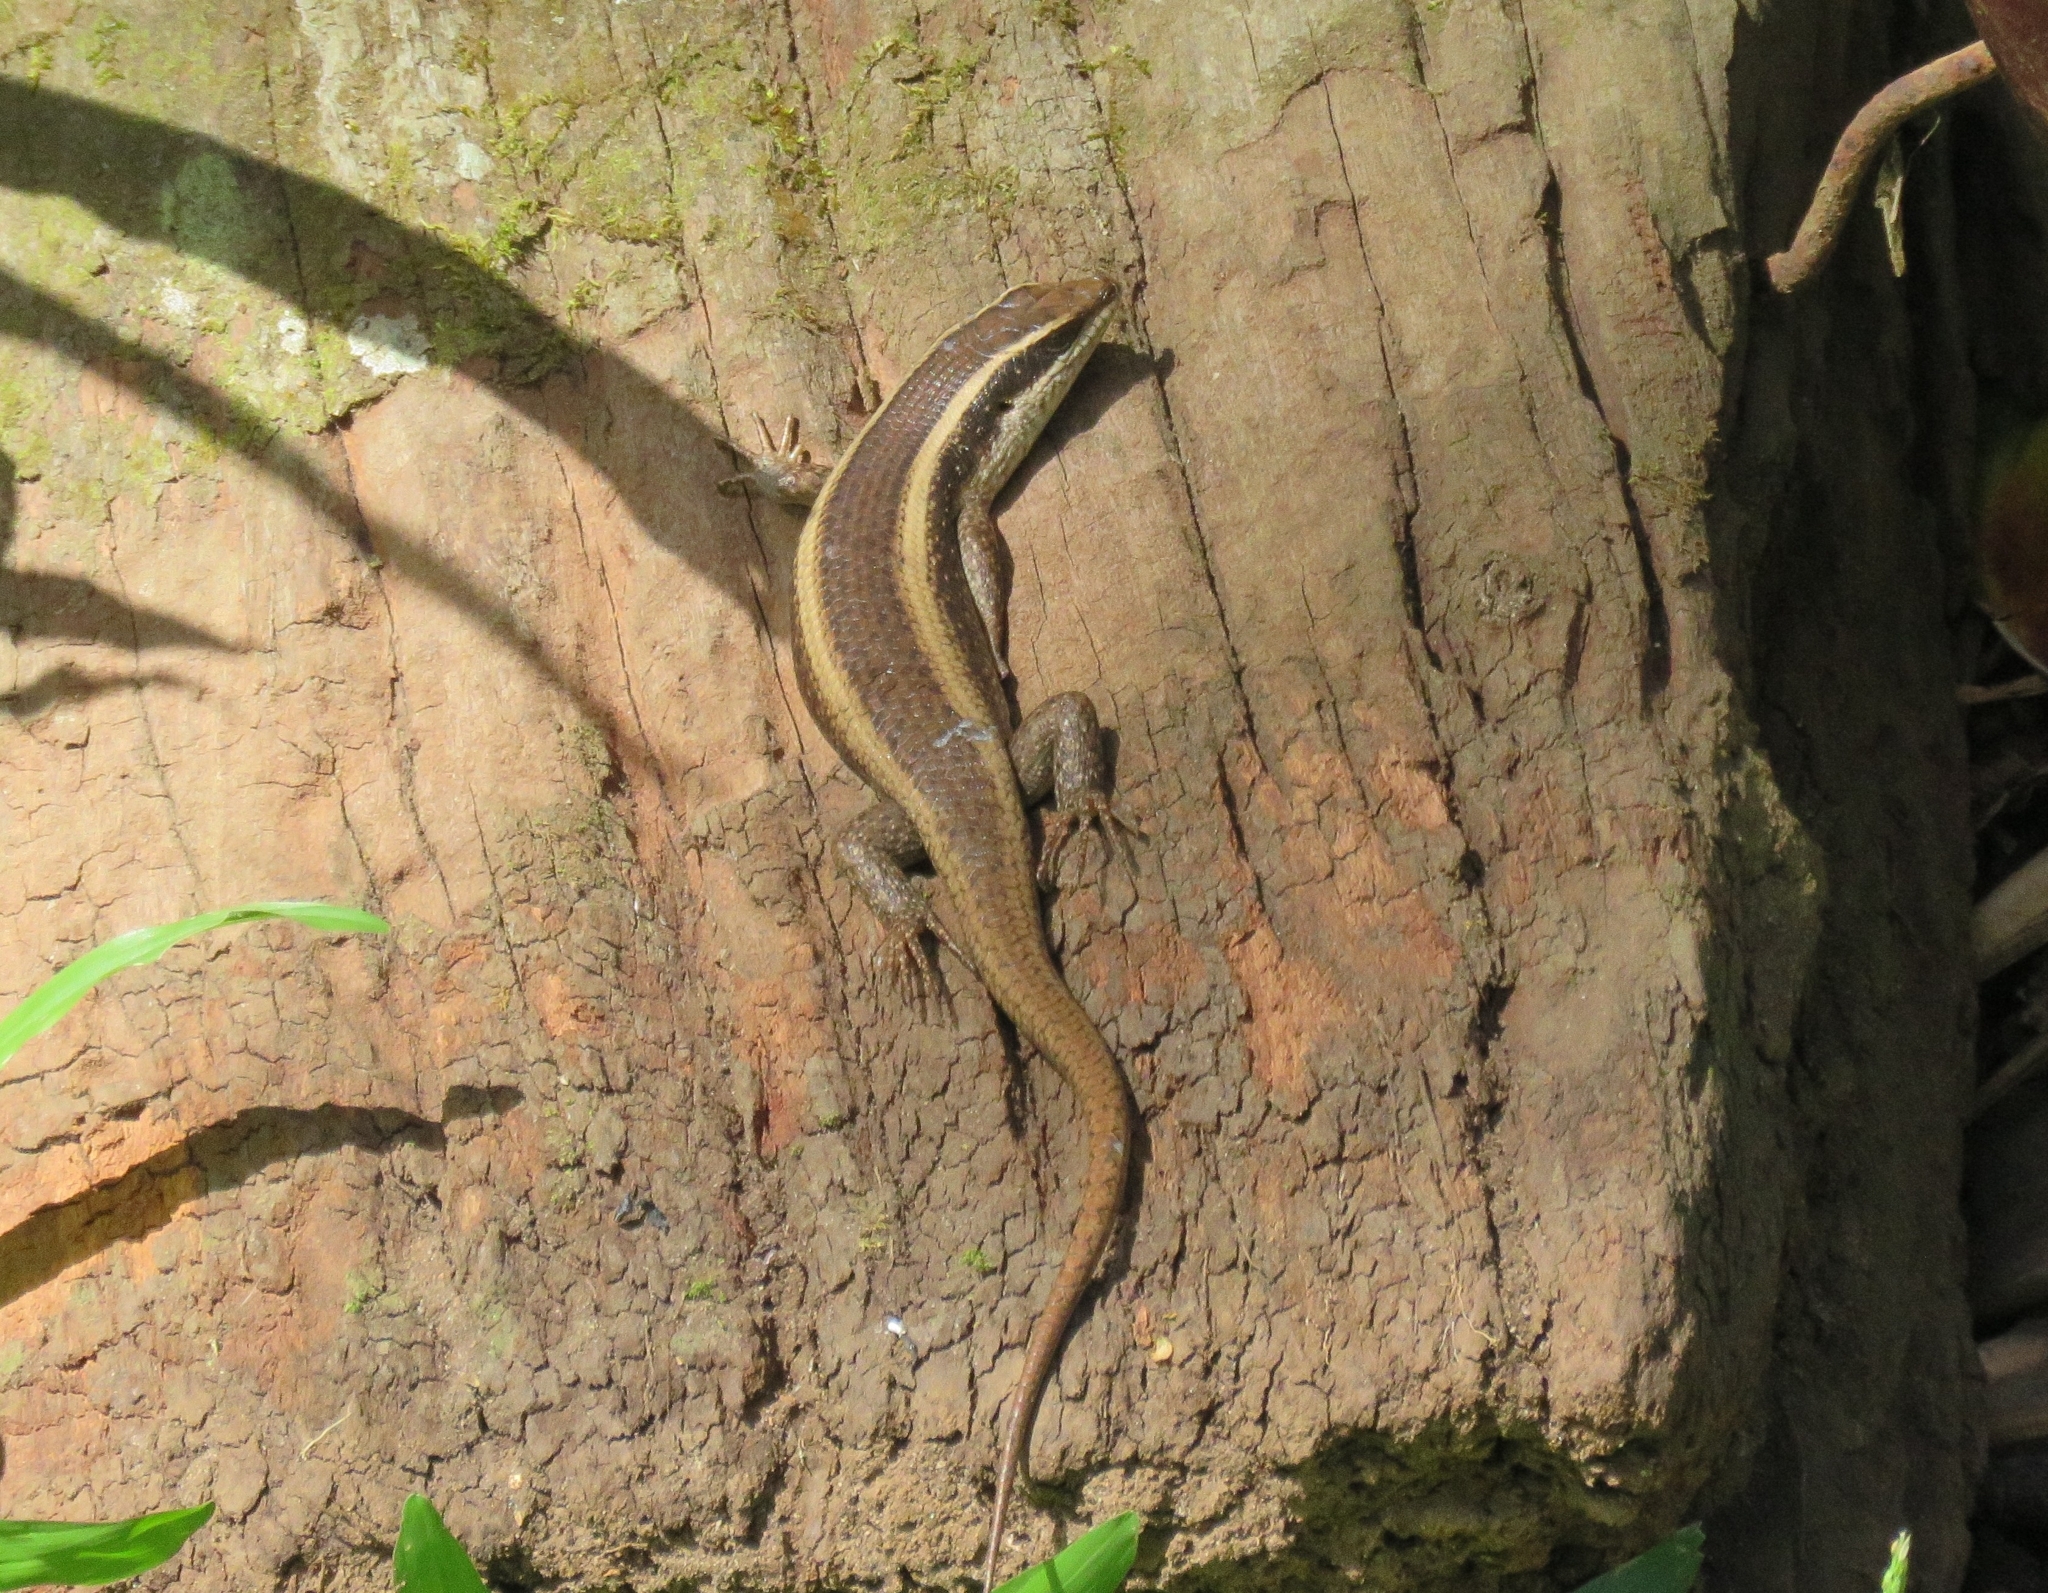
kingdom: Animalia
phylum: Chordata
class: Squamata
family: Scincidae
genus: Trachylepis
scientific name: Trachylepis striata
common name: African striped mabuya
